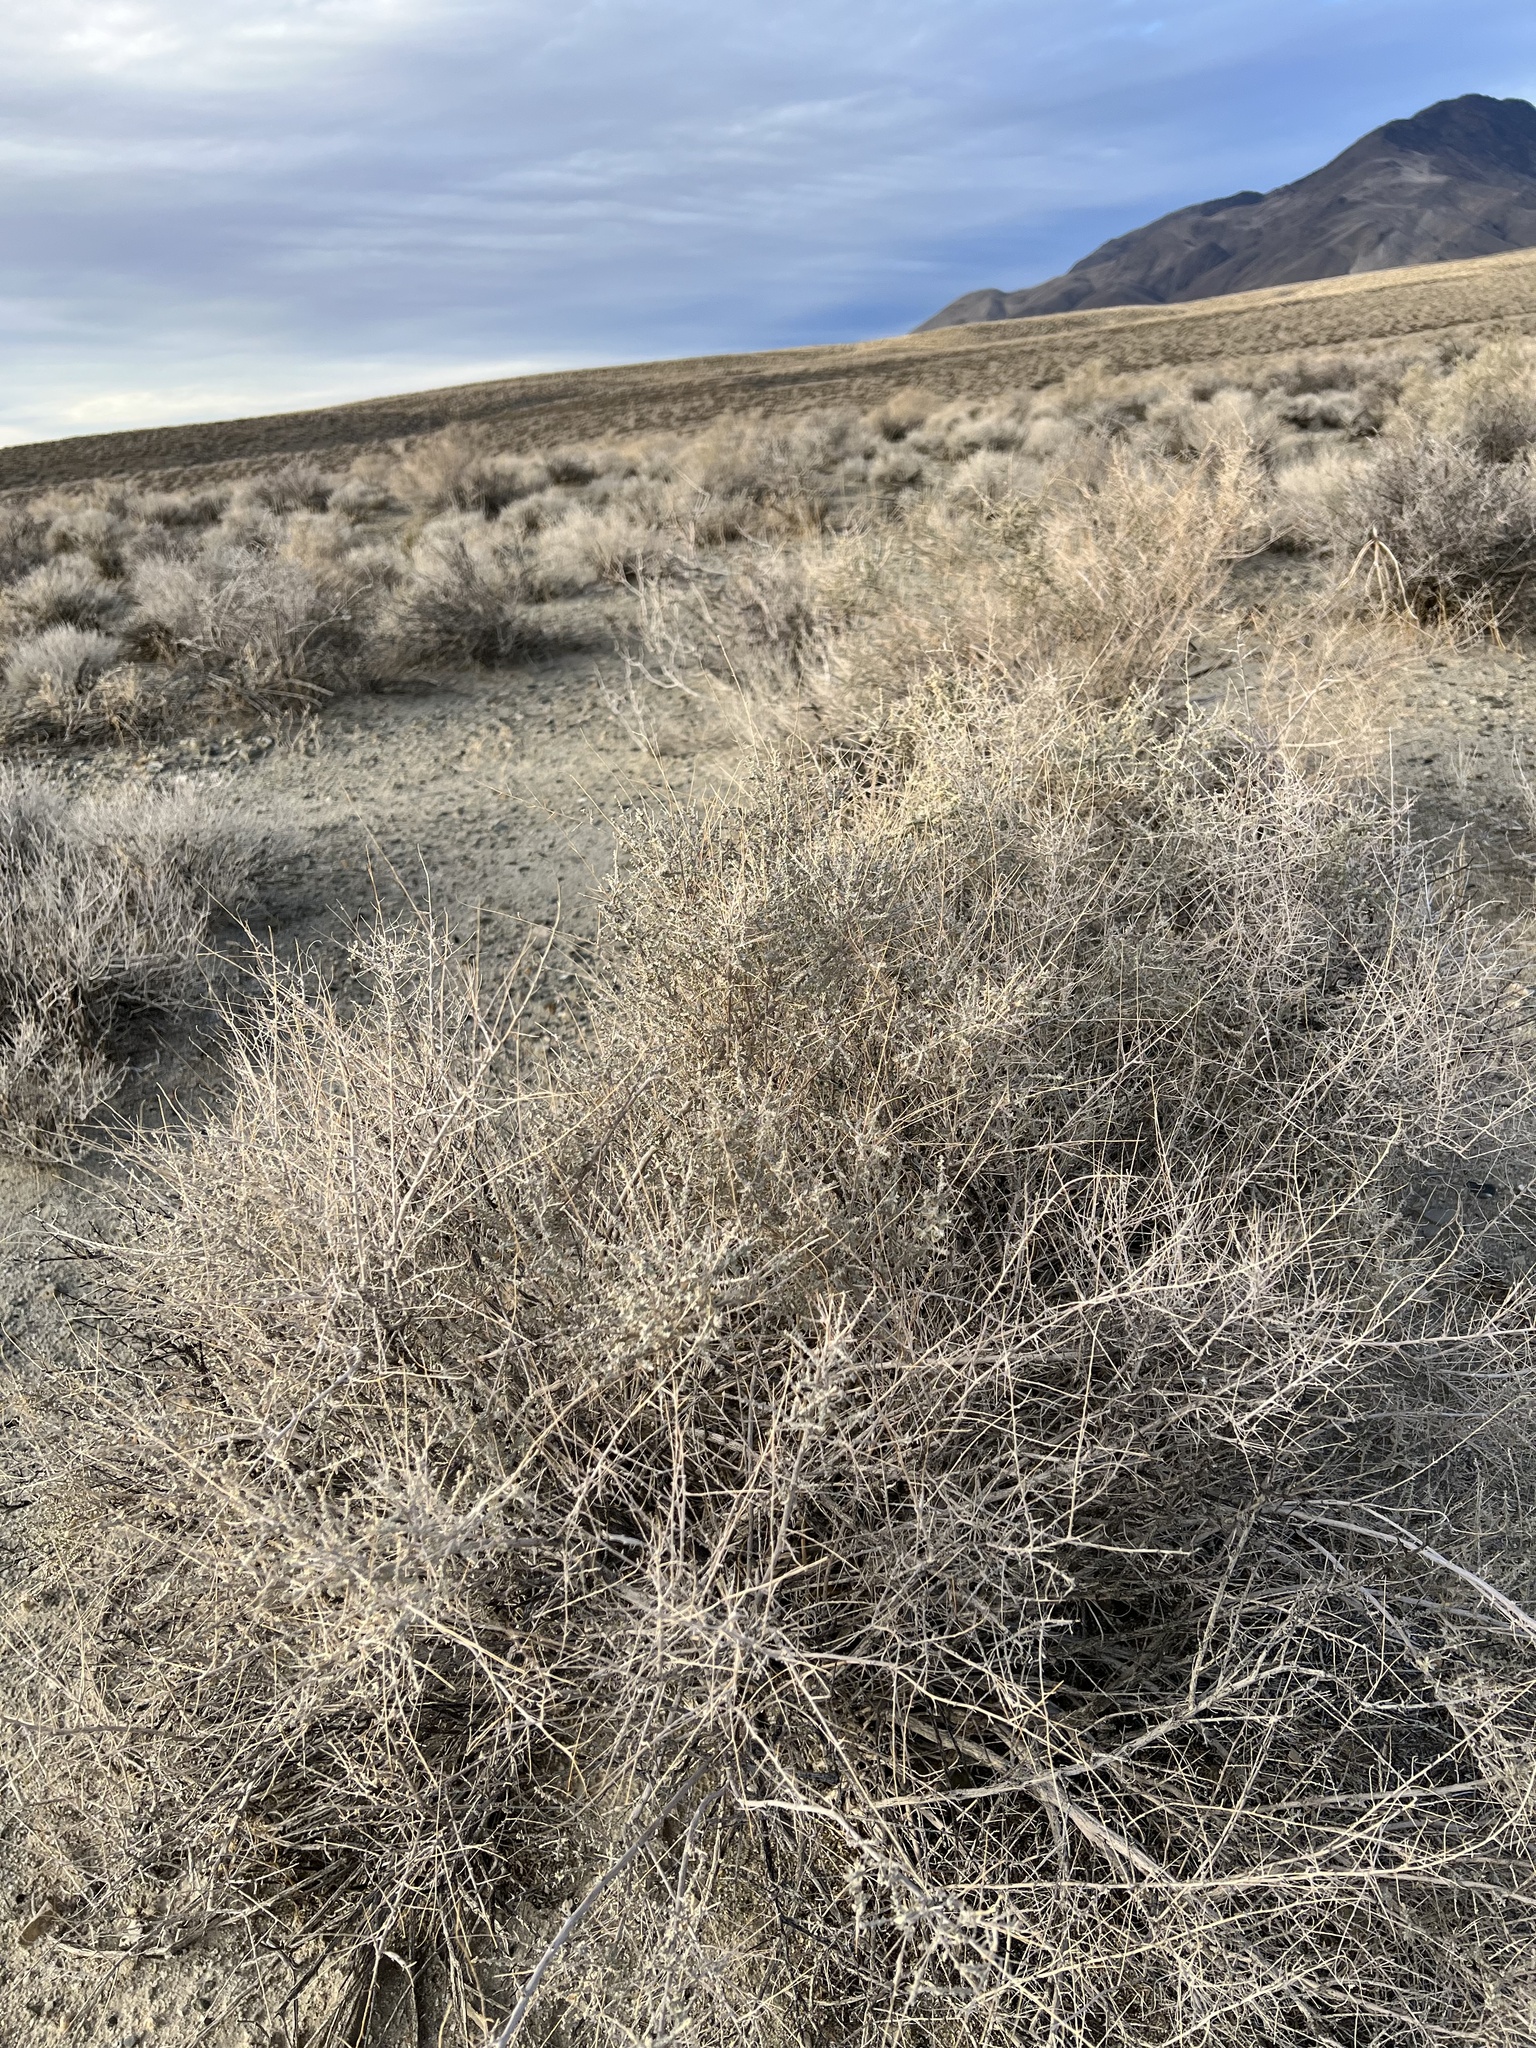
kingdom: Plantae
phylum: Tracheophyta
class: Magnoliopsida
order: Caryophyllales
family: Amaranthaceae
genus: Atriplex
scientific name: Atriplex polycarpa
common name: Desert saltbush
